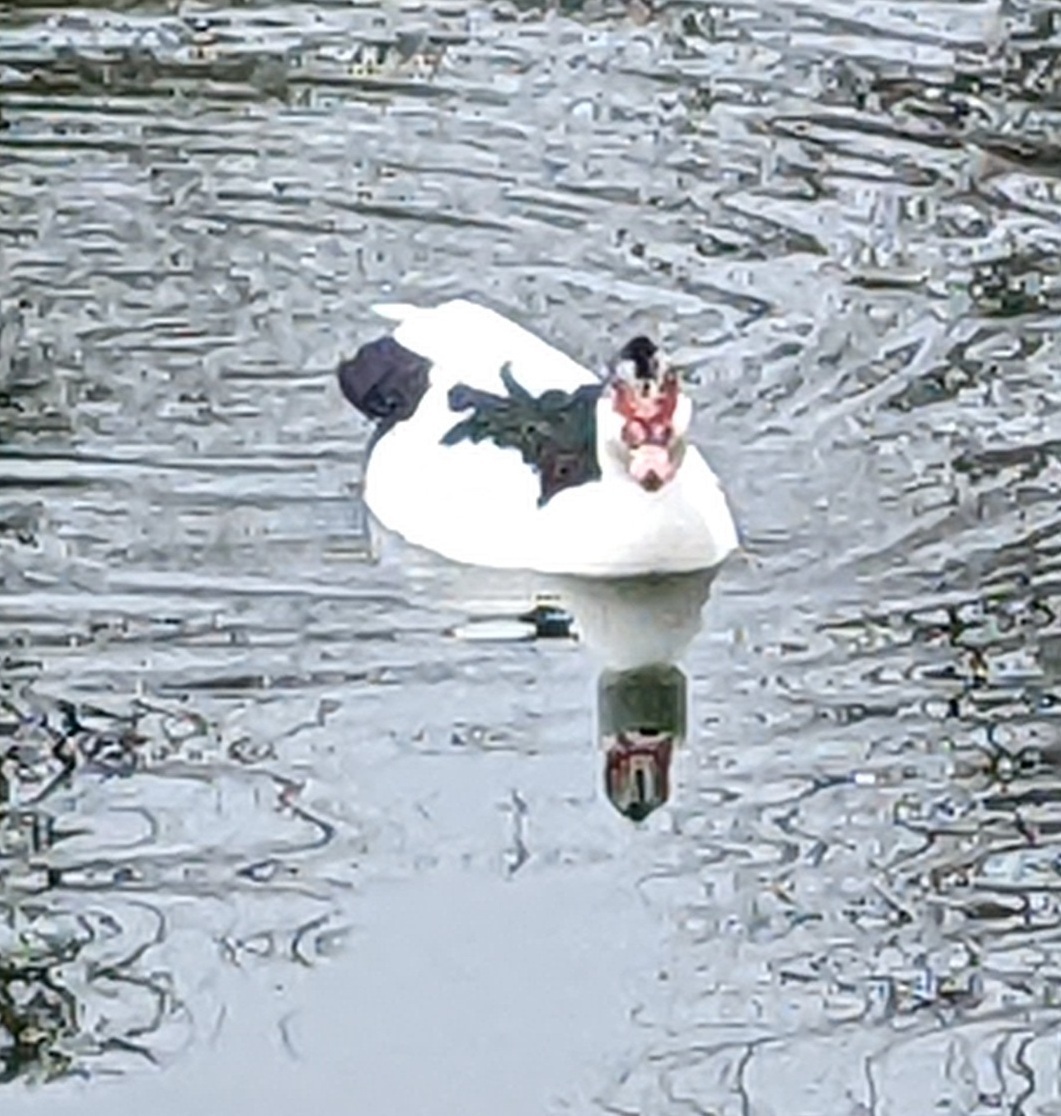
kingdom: Animalia
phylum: Chordata
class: Aves
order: Anseriformes
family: Anatidae
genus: Cairina
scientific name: Cairina moschata
